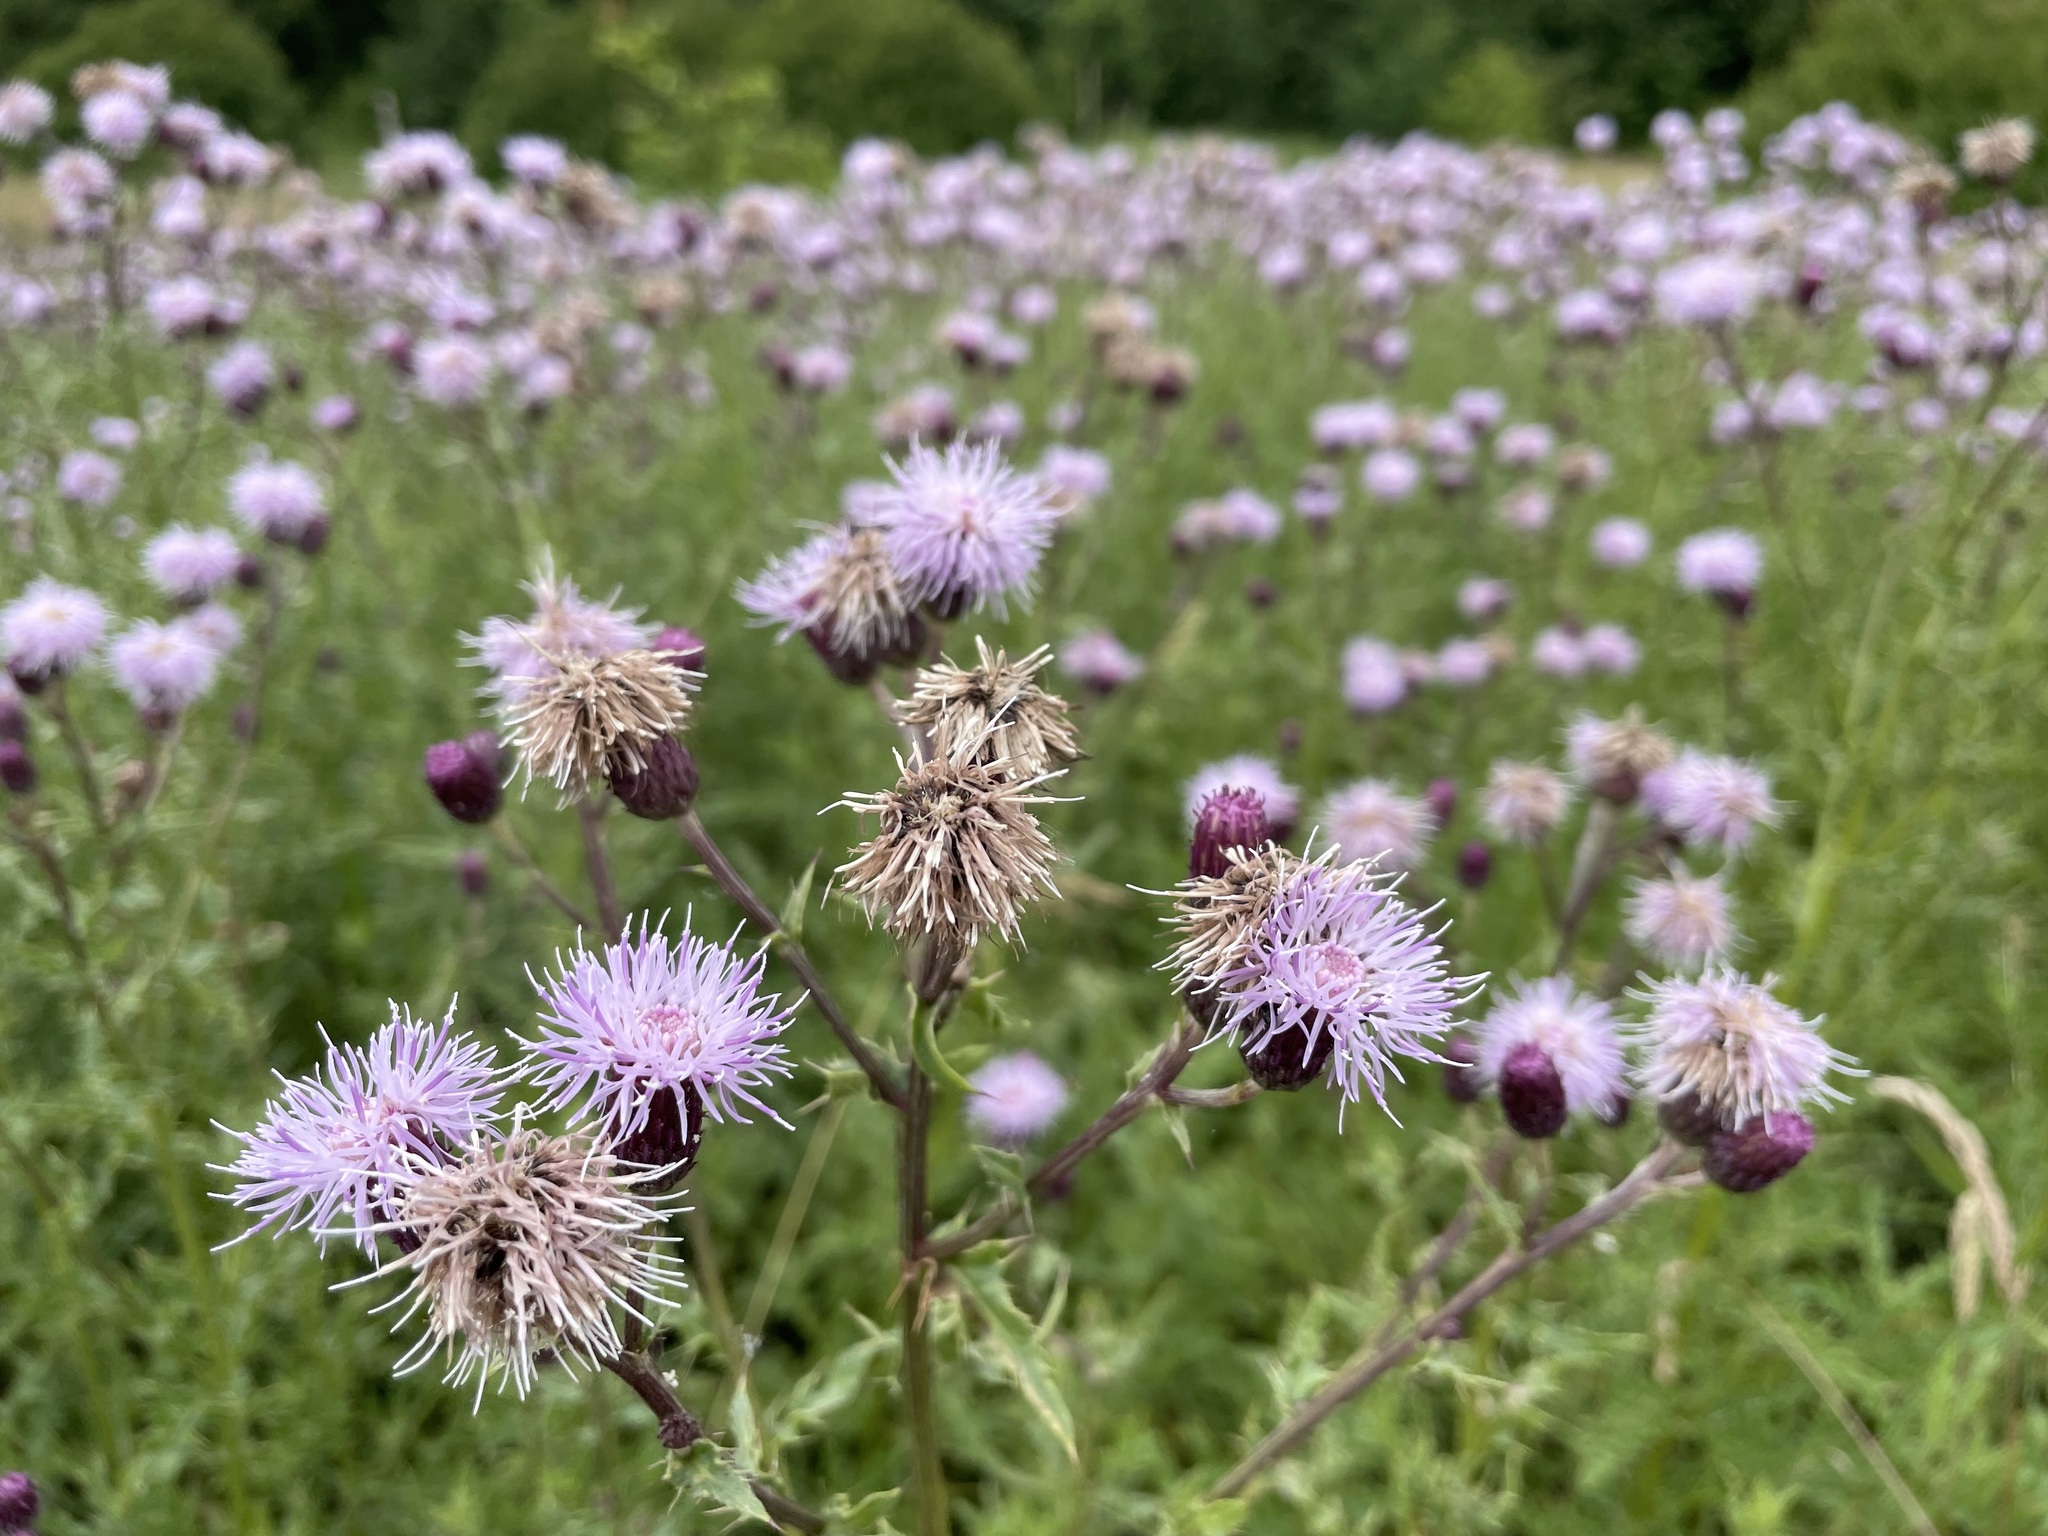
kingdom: Plantae
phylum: Tracheophyta
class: Magnoliopsida
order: Asterales
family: Asteraceae
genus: Cirsium
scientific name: Cirsium arvense
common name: Creeping thistle
